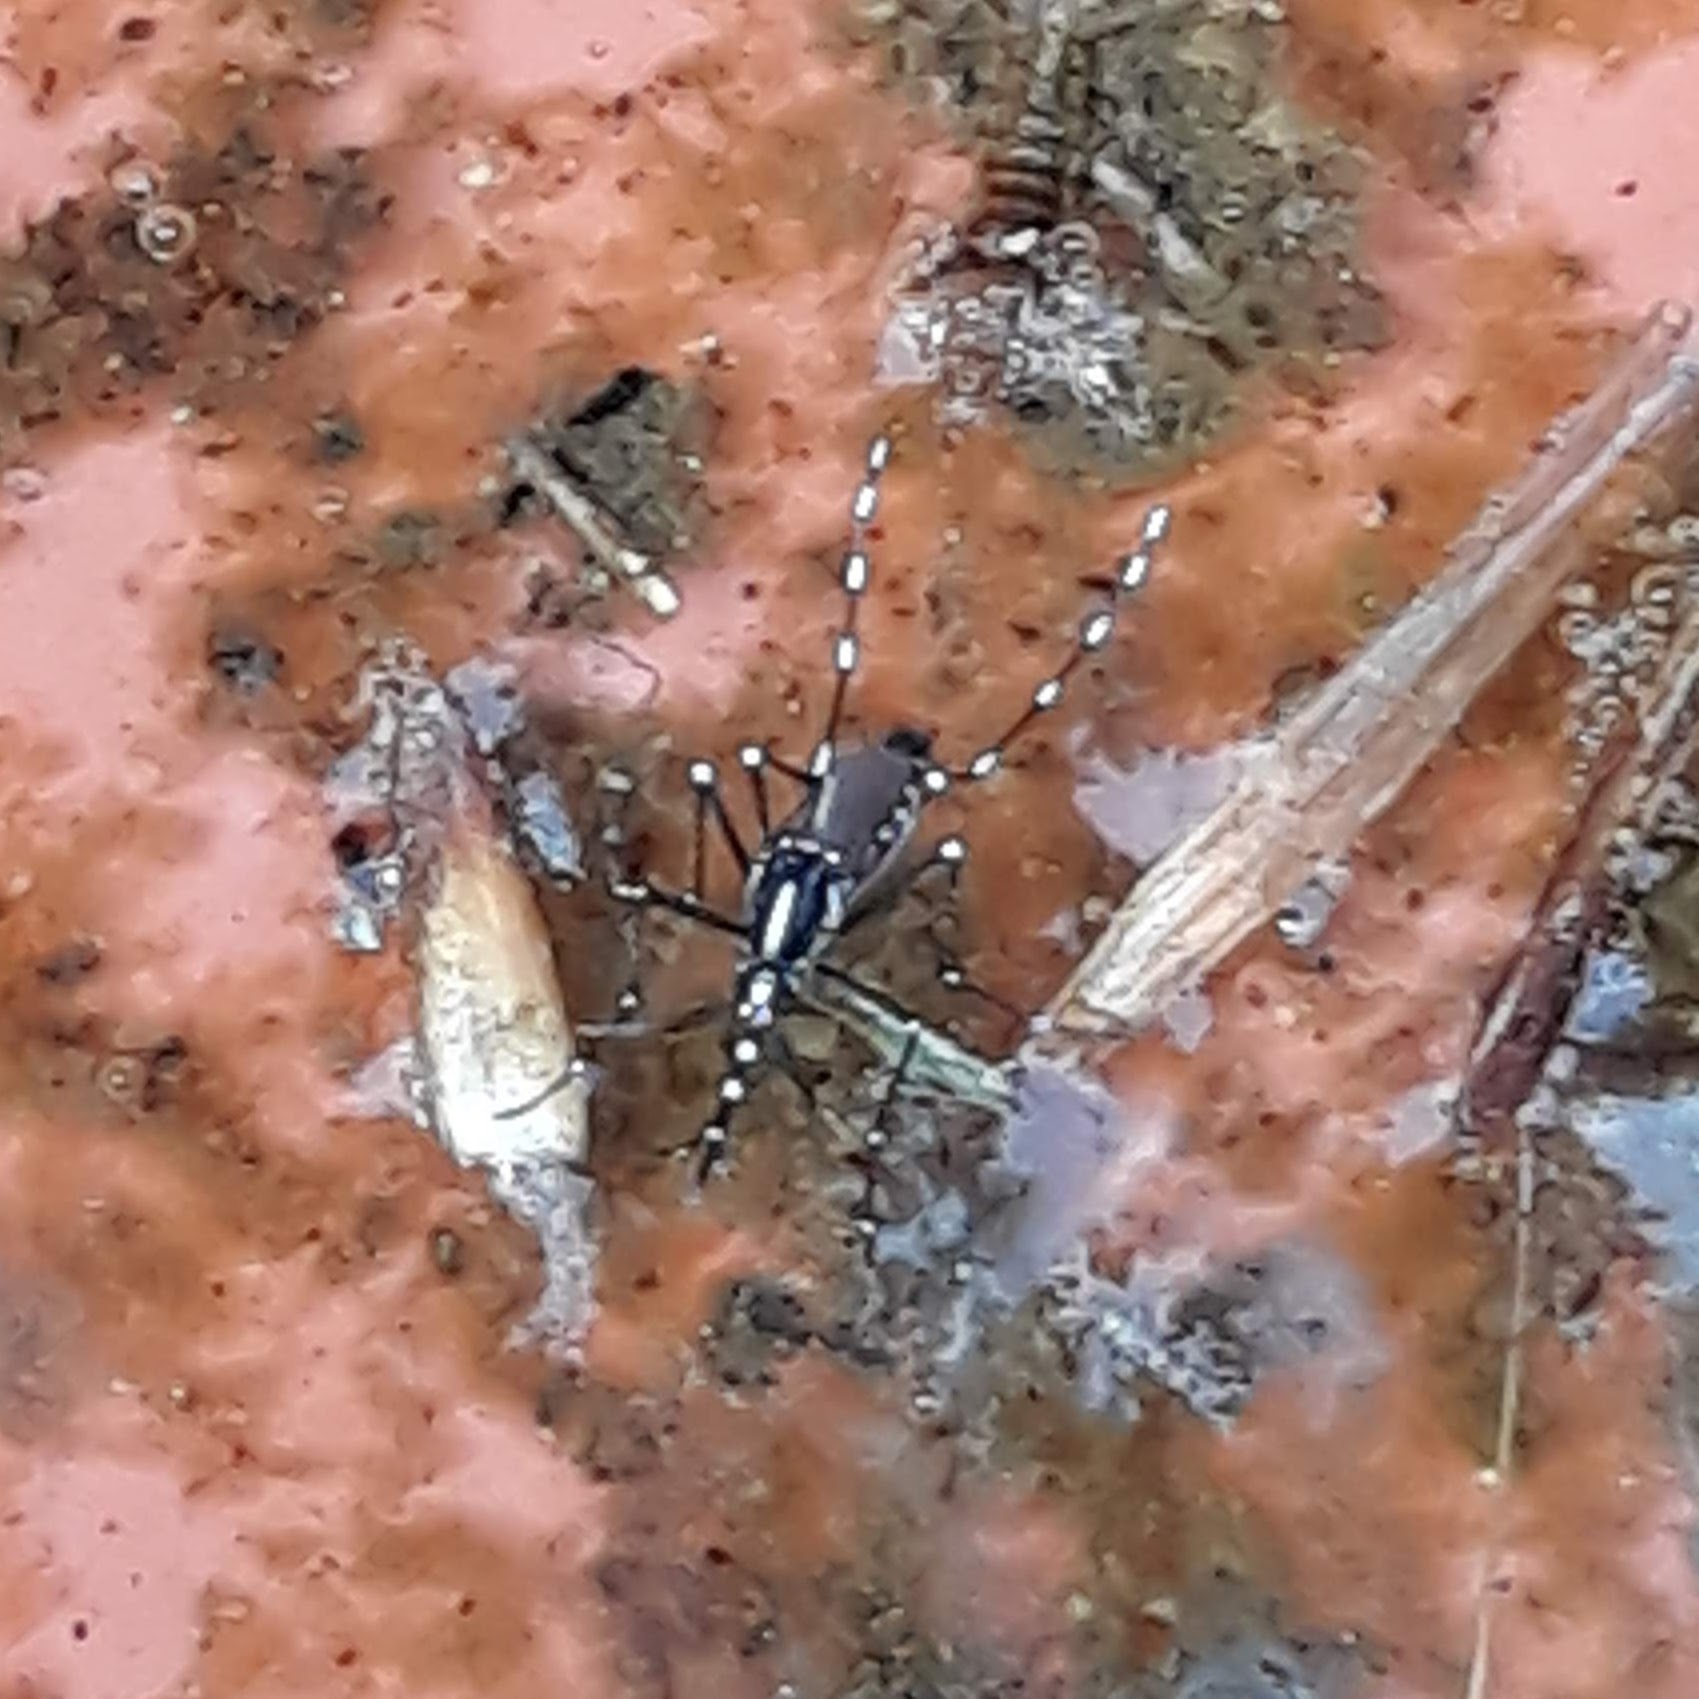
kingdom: Animalia
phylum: Arthropoda
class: Insecta
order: Diptera
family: Culicidae
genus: Aedes
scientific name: Aedes albopictus
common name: Tiger mosquito
